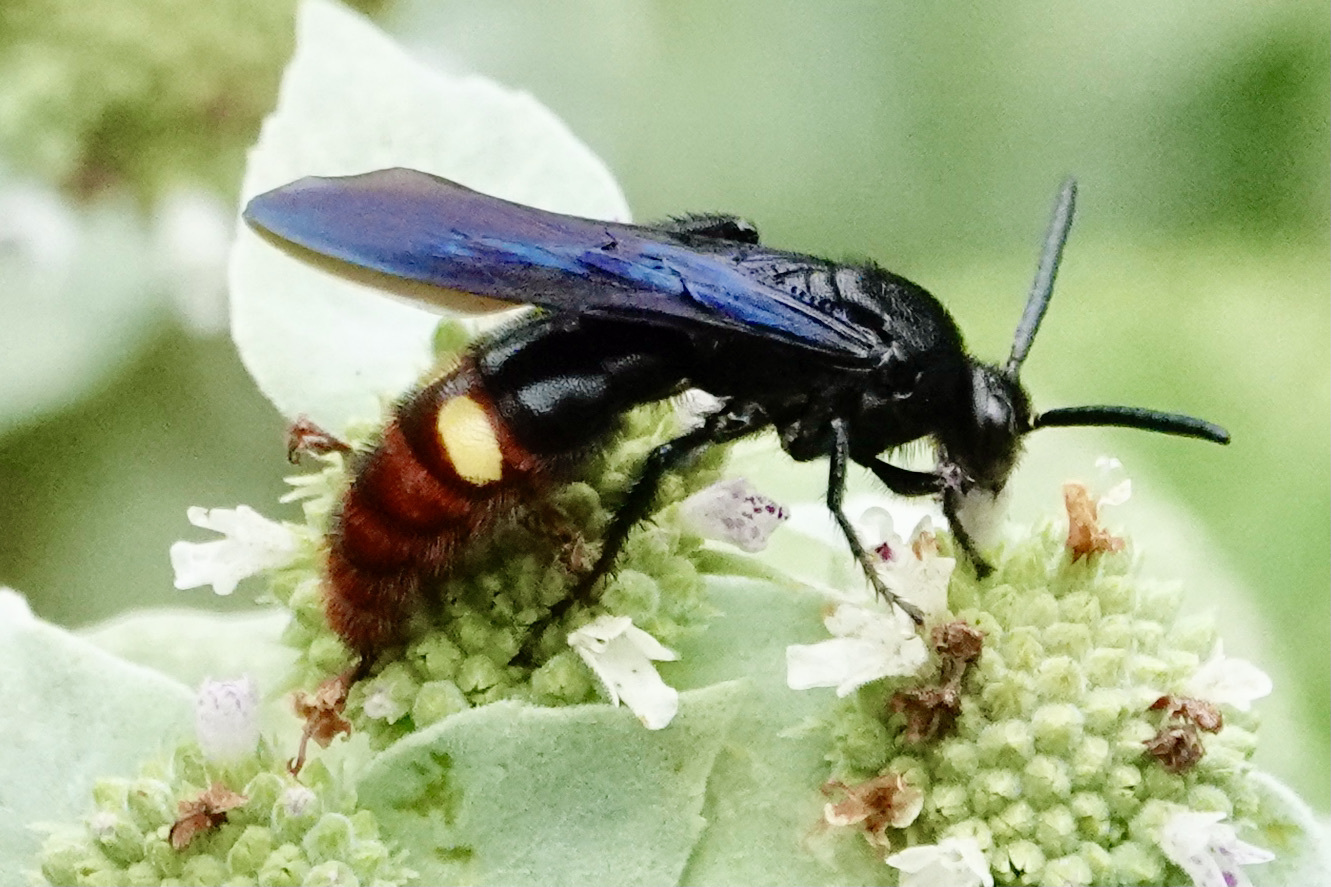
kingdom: Animalia
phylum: Arthropoda
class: Insecta
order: Hymenoptera
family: Scoliidae
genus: Scolia
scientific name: Scolia dubia
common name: Blue-winged scoliid wasp
